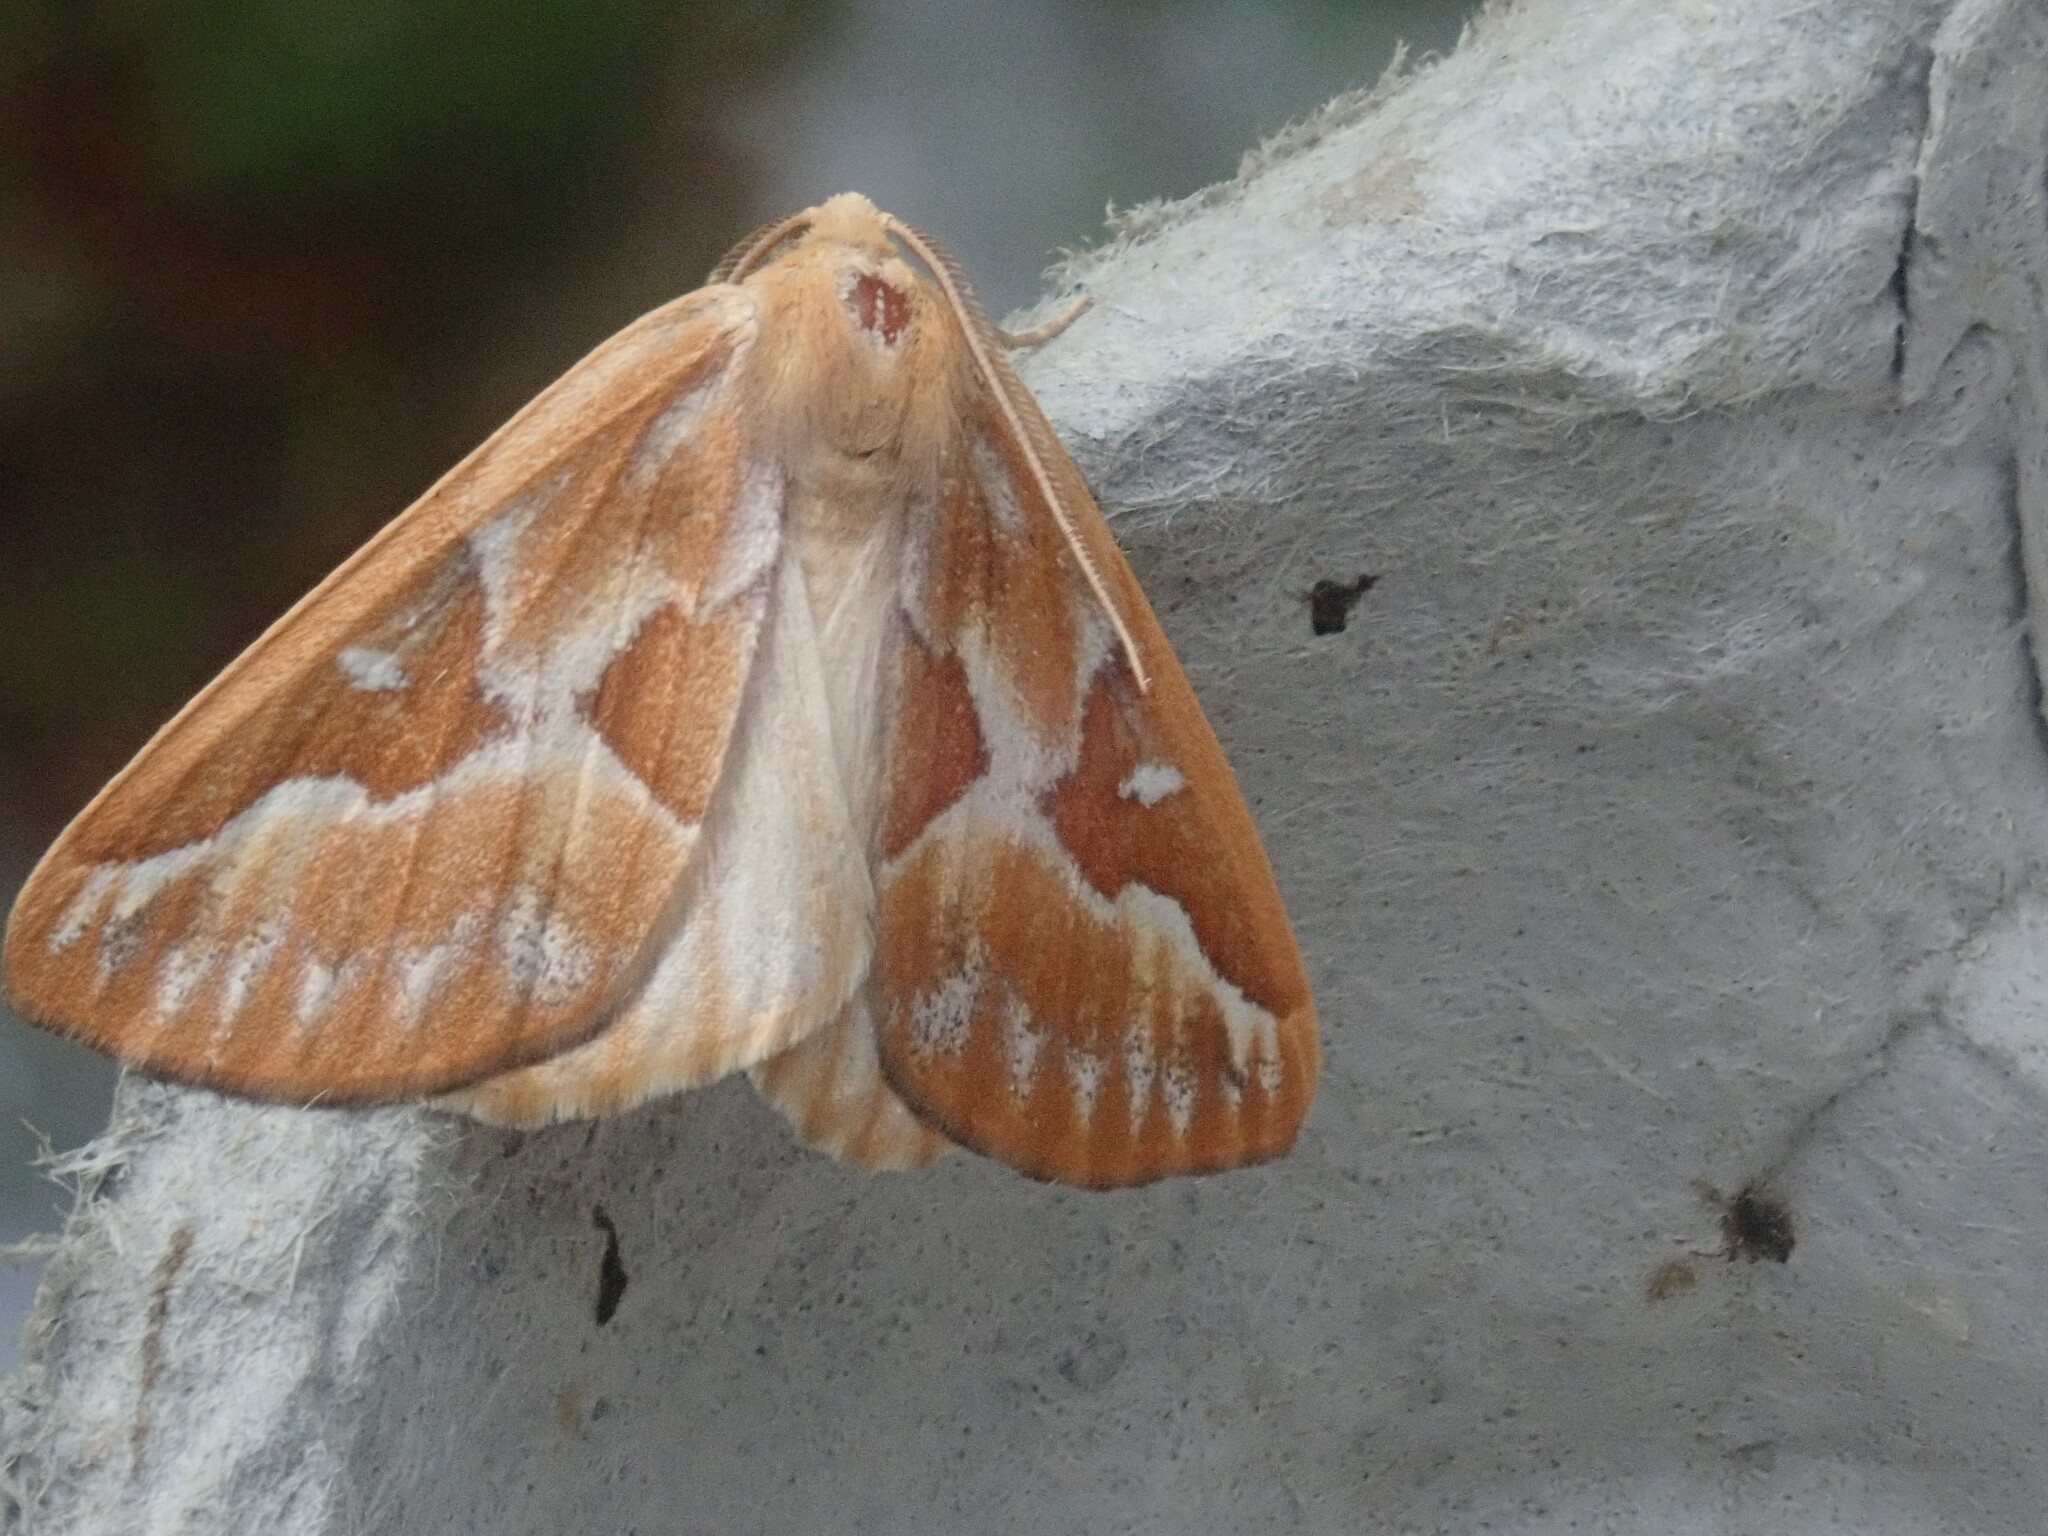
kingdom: Animalia
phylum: Arthropoda
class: Insecta
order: Lepidoptera
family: Geometridae
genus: Caripeta
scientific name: Caripeta piniata
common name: Northern pine looper moth
